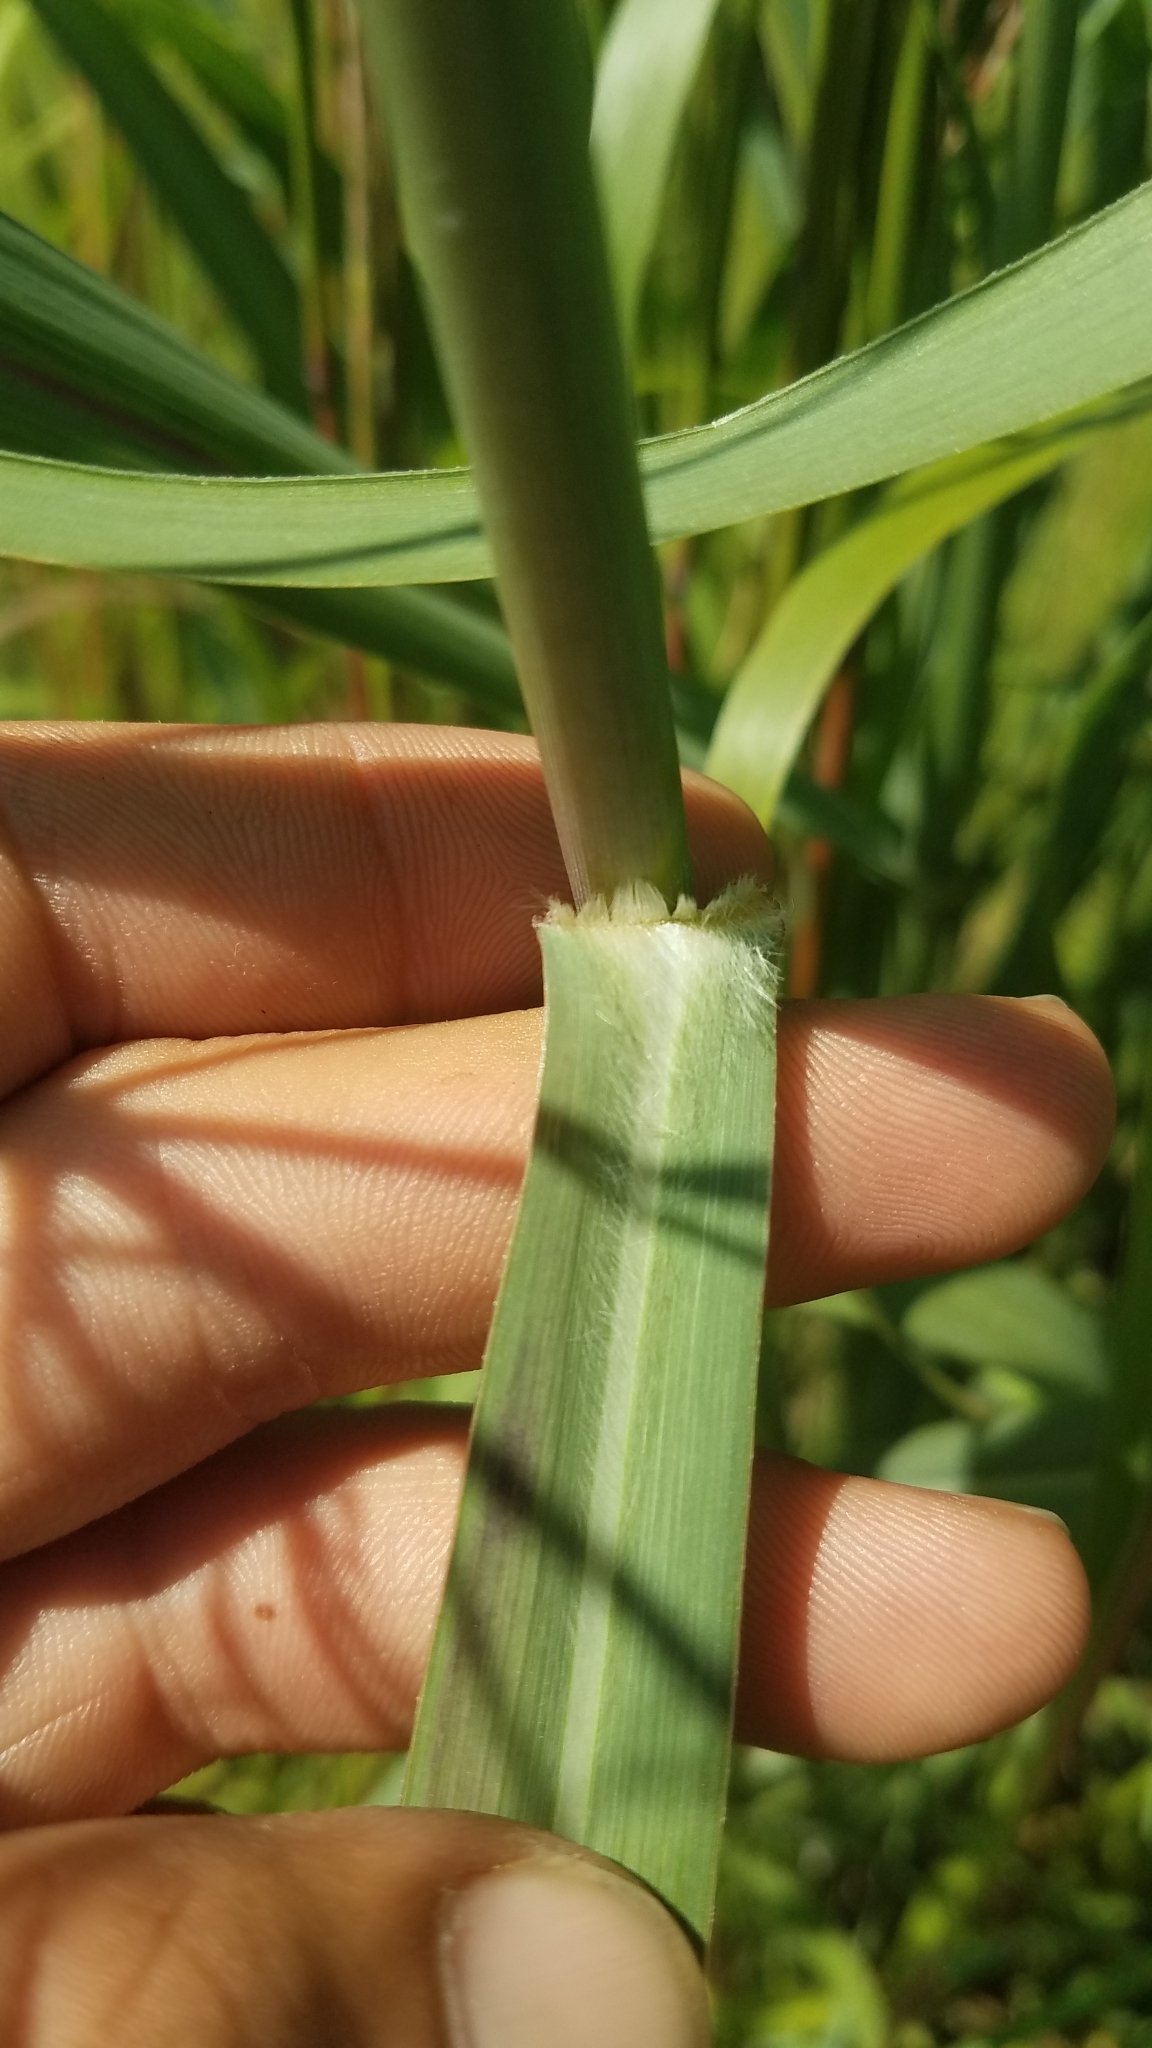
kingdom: Plantae
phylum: Tracheophyta
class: Liliopsida
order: Poales
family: Poaceae
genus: Panicum
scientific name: Panicum virgatum
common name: Switchgrass
